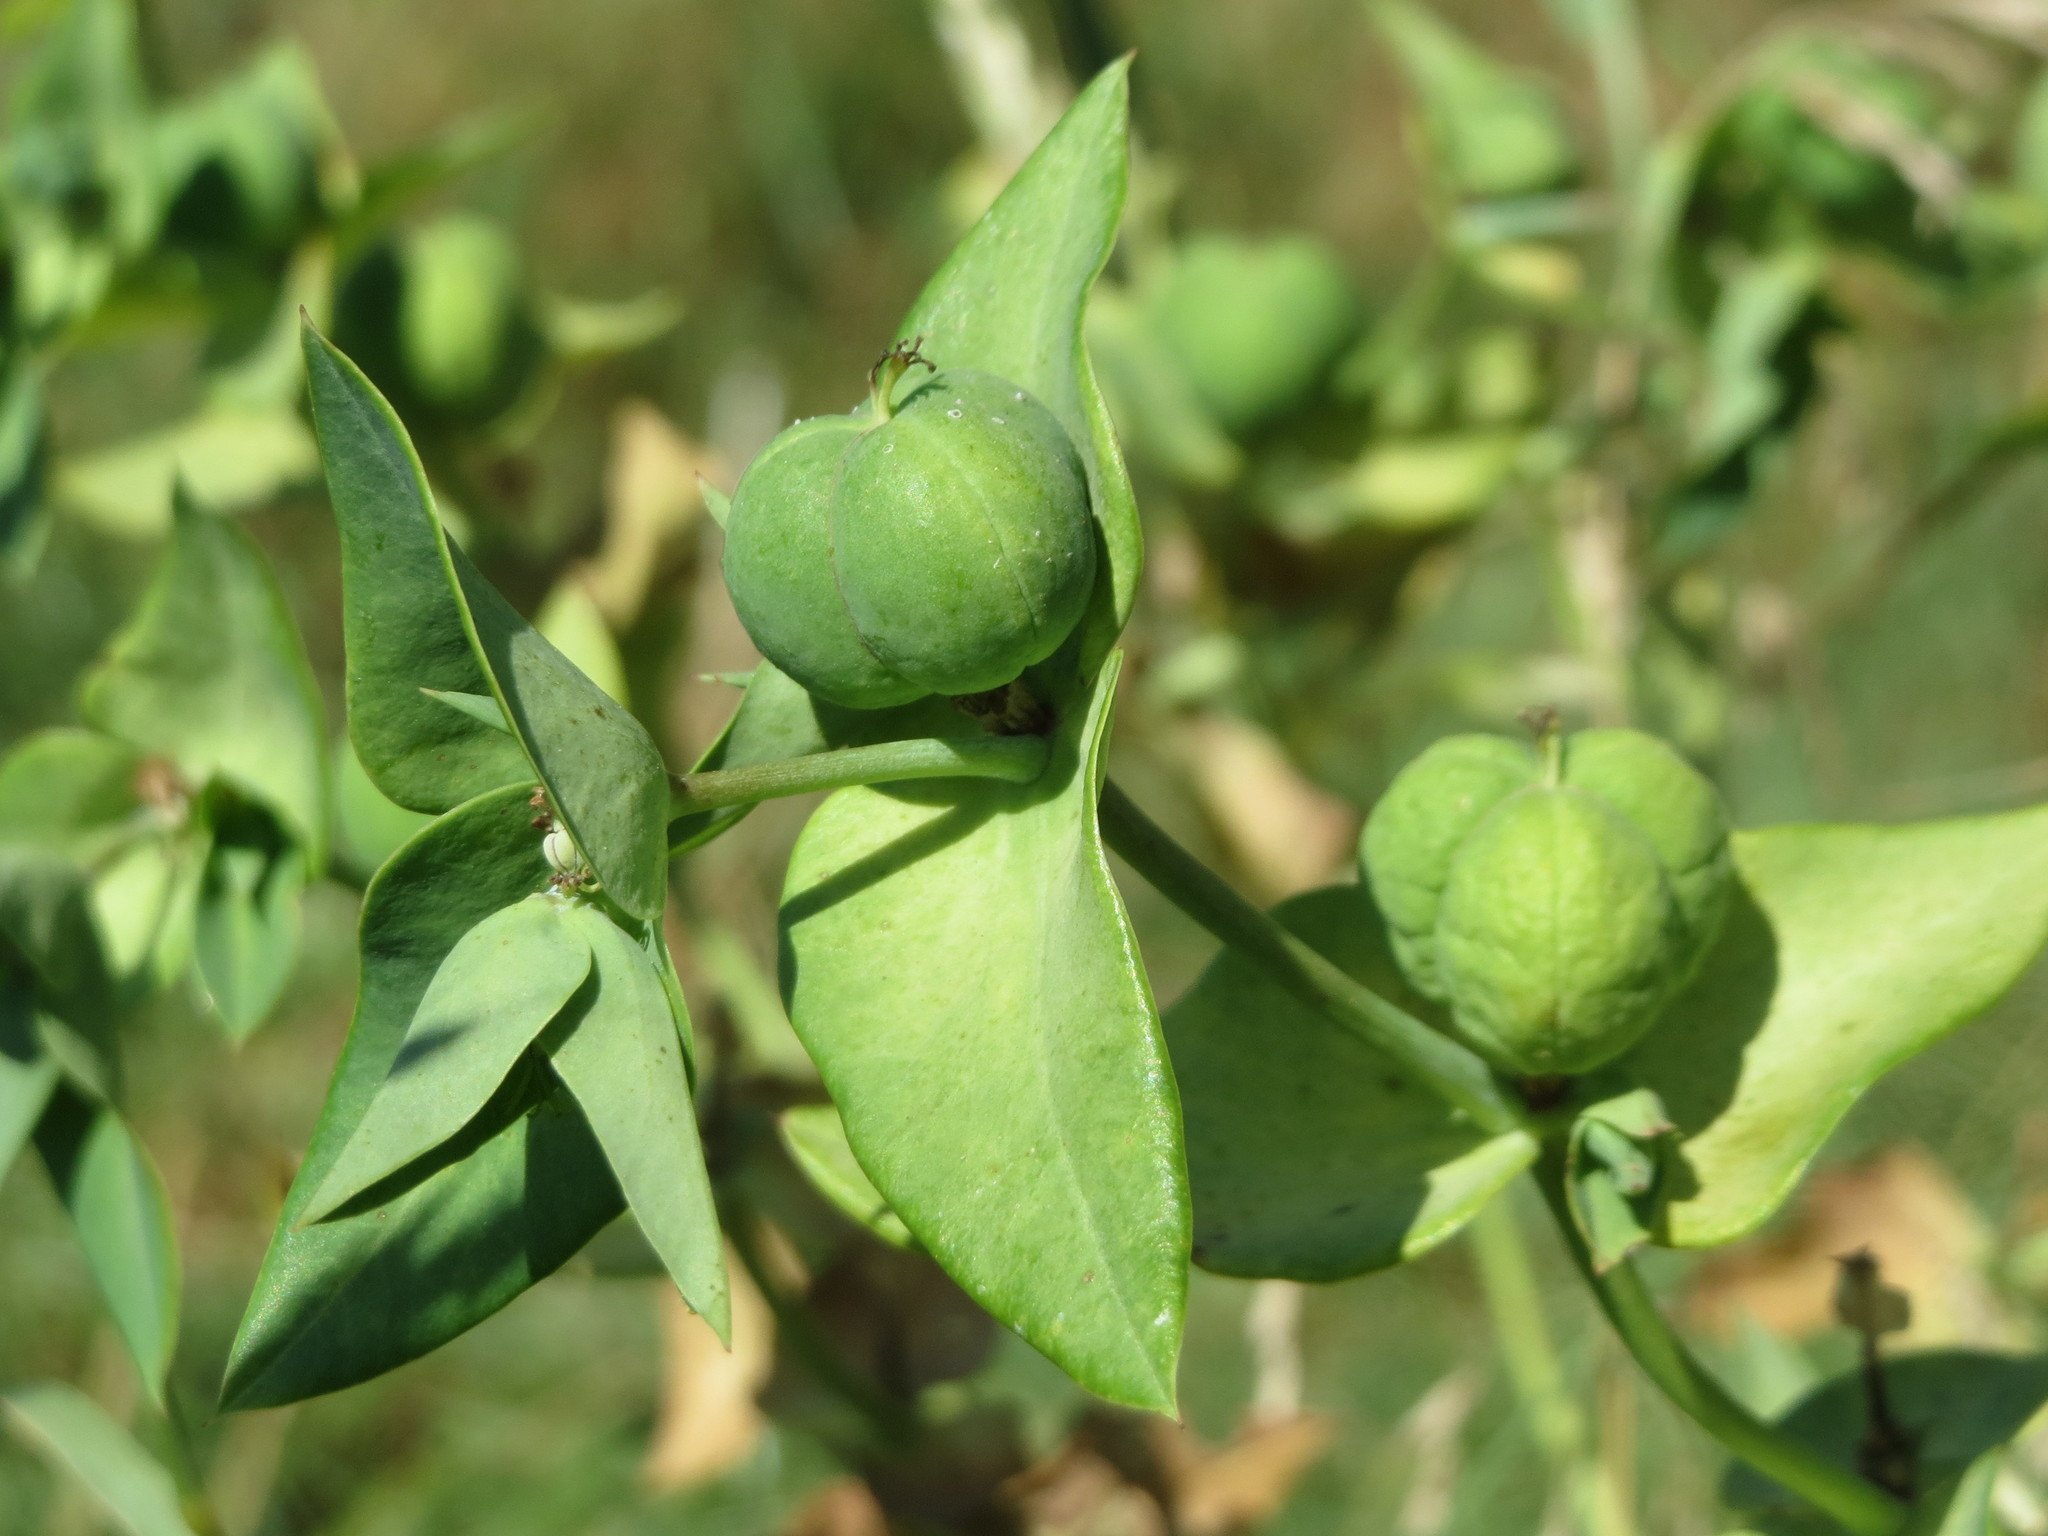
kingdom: Plantae
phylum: Tracheophyta
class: Magnoliopsida
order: Malpighiales
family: Euphorbiaceae
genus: Euphorbia
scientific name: Euphorbia lathyris
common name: Caper spurge
